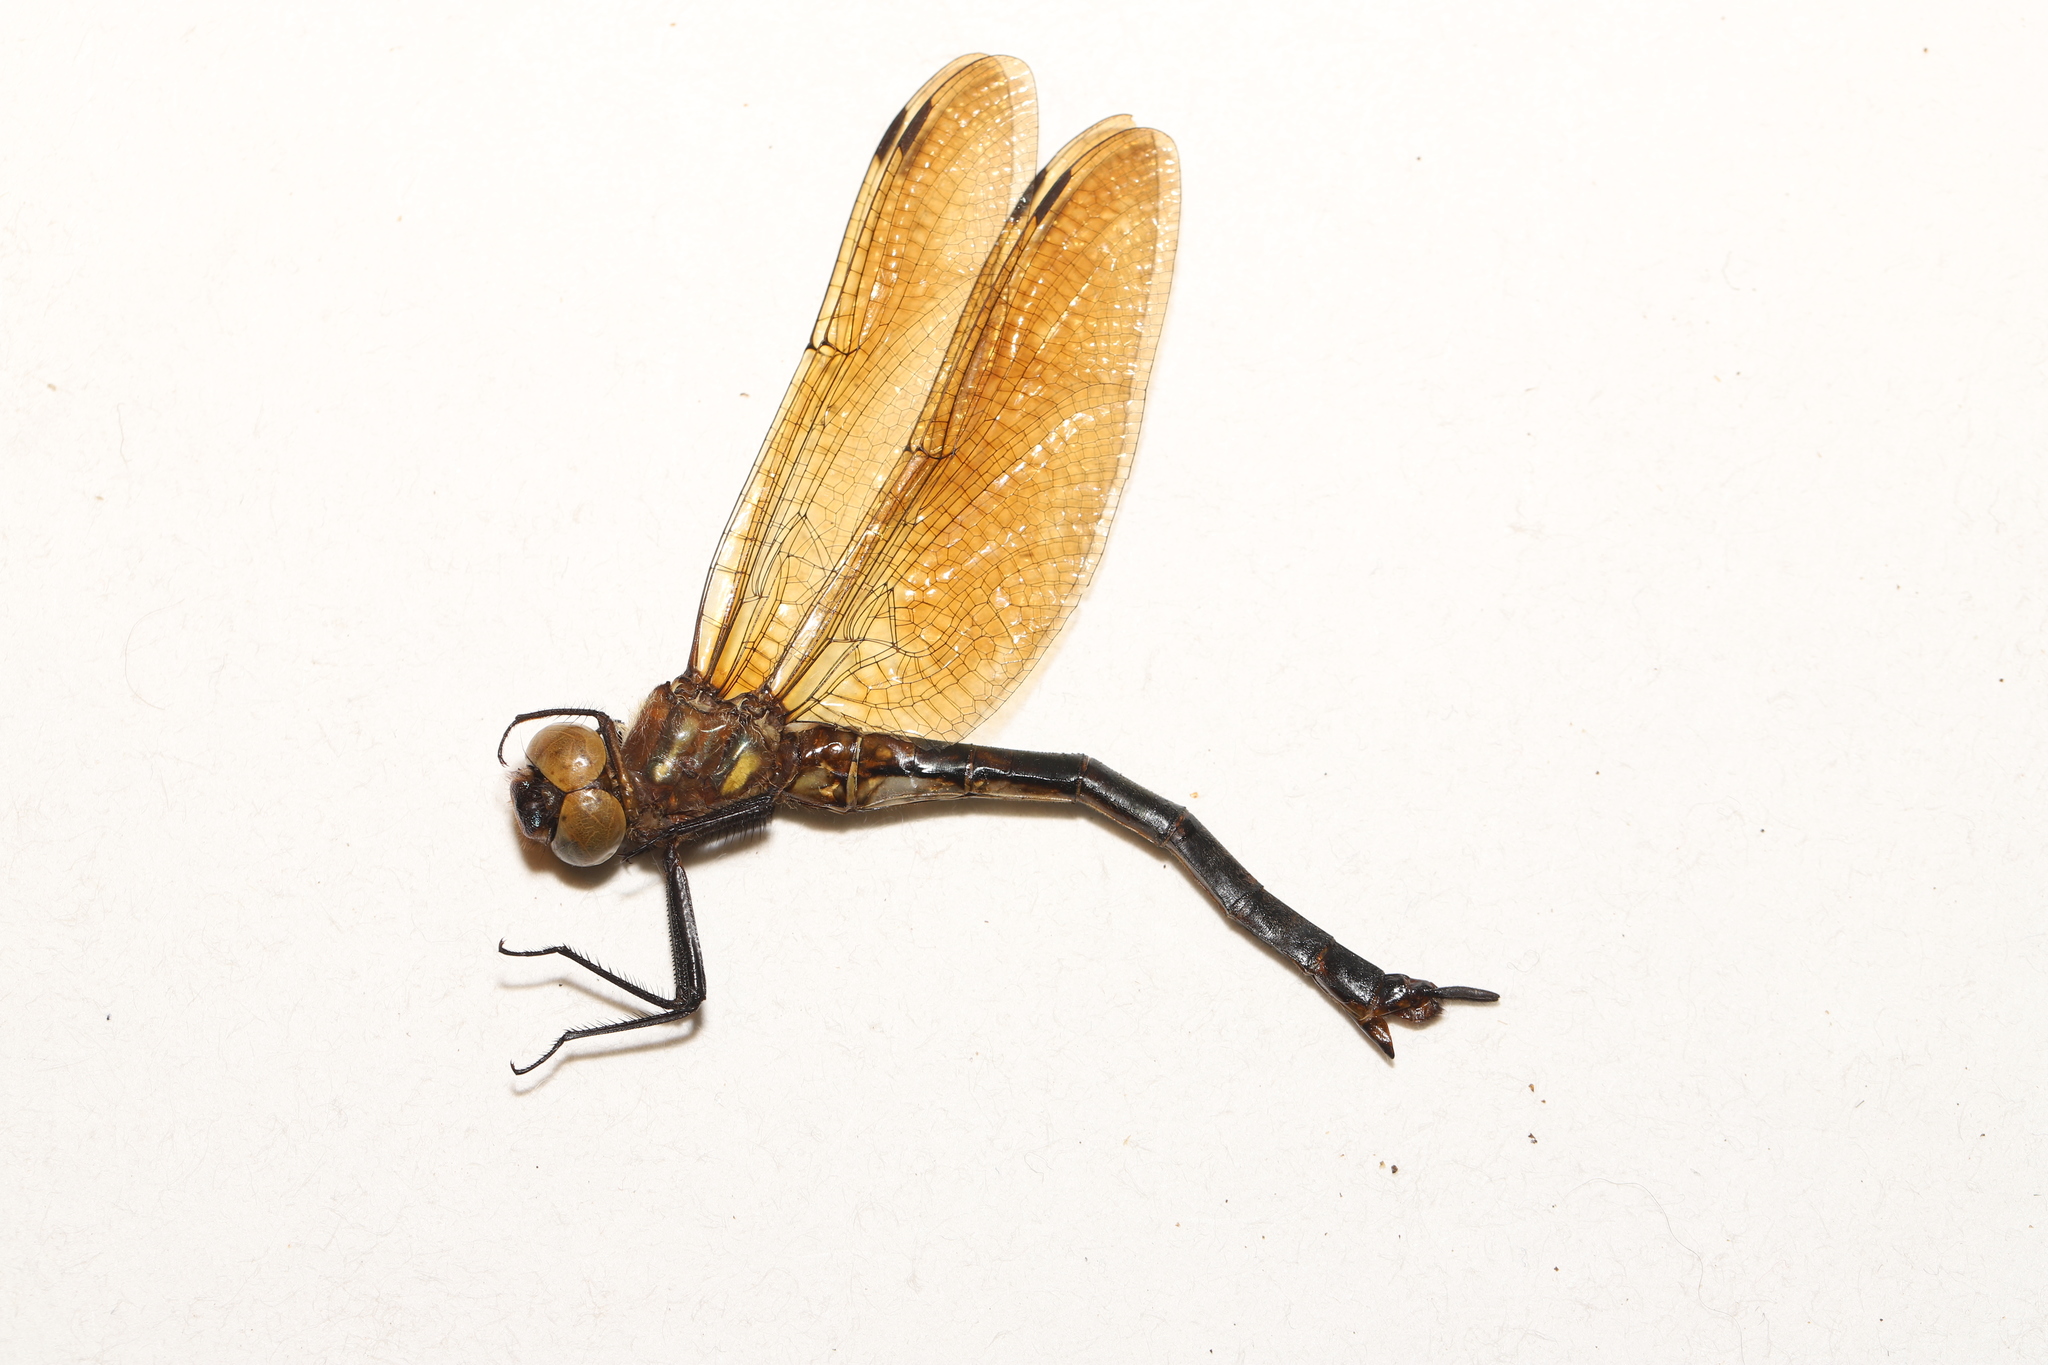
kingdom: Animalia
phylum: Arthropoda
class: Insecta
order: Odonata
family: Corduliidae
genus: Somatochlora
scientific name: Somatochlora hineana
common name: Hine's emerald
